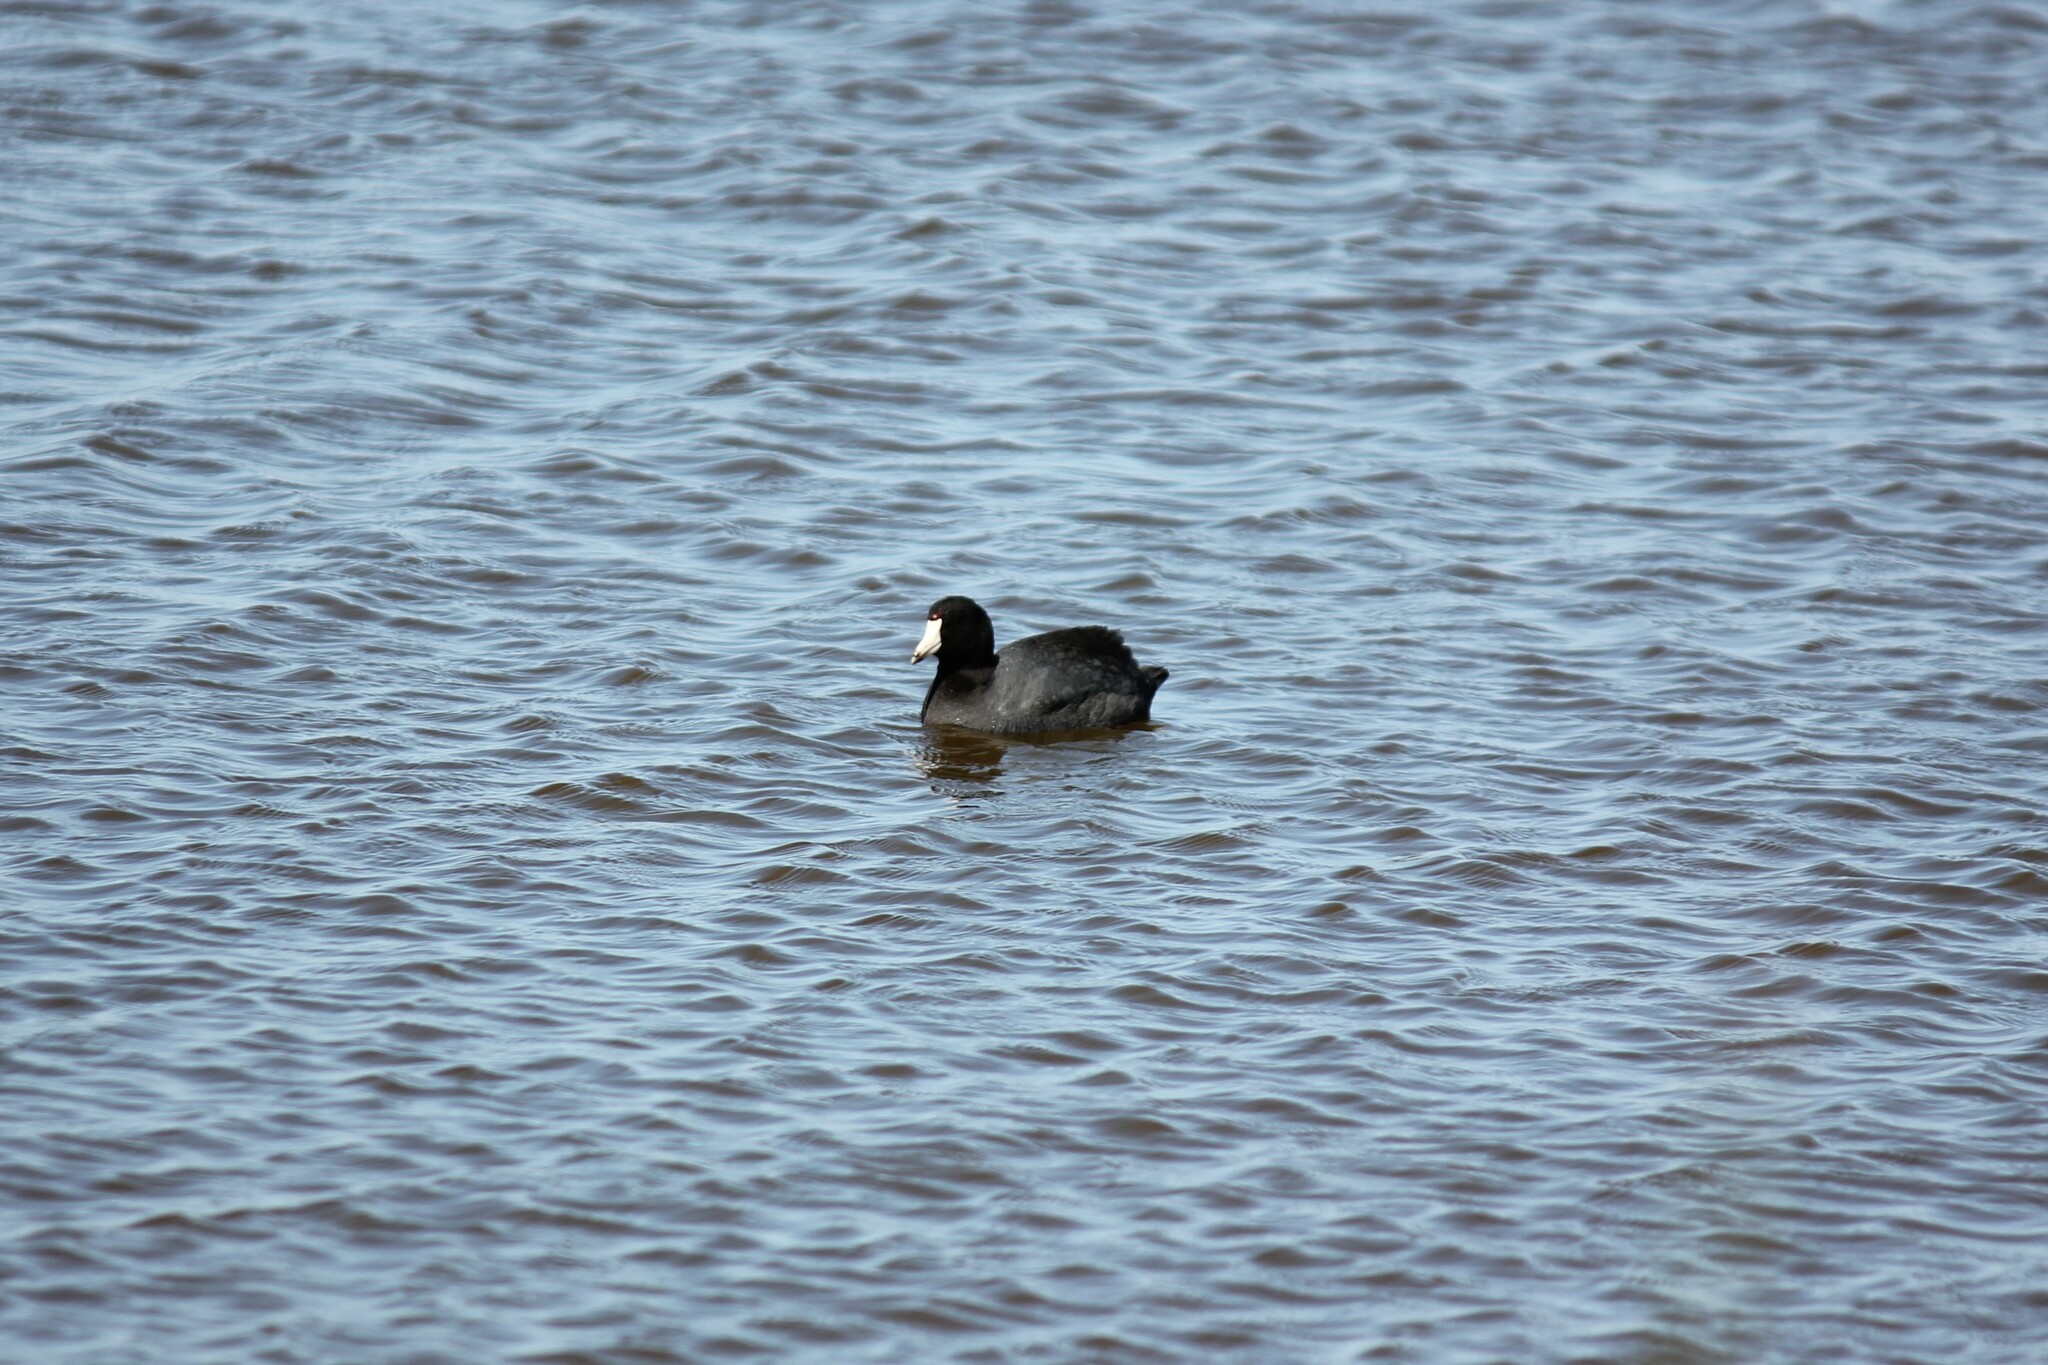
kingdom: Animalia
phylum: Chordata
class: Aves
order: Gruiformes
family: Rallidae
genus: Fulica
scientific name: Fulica americana
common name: American coot
